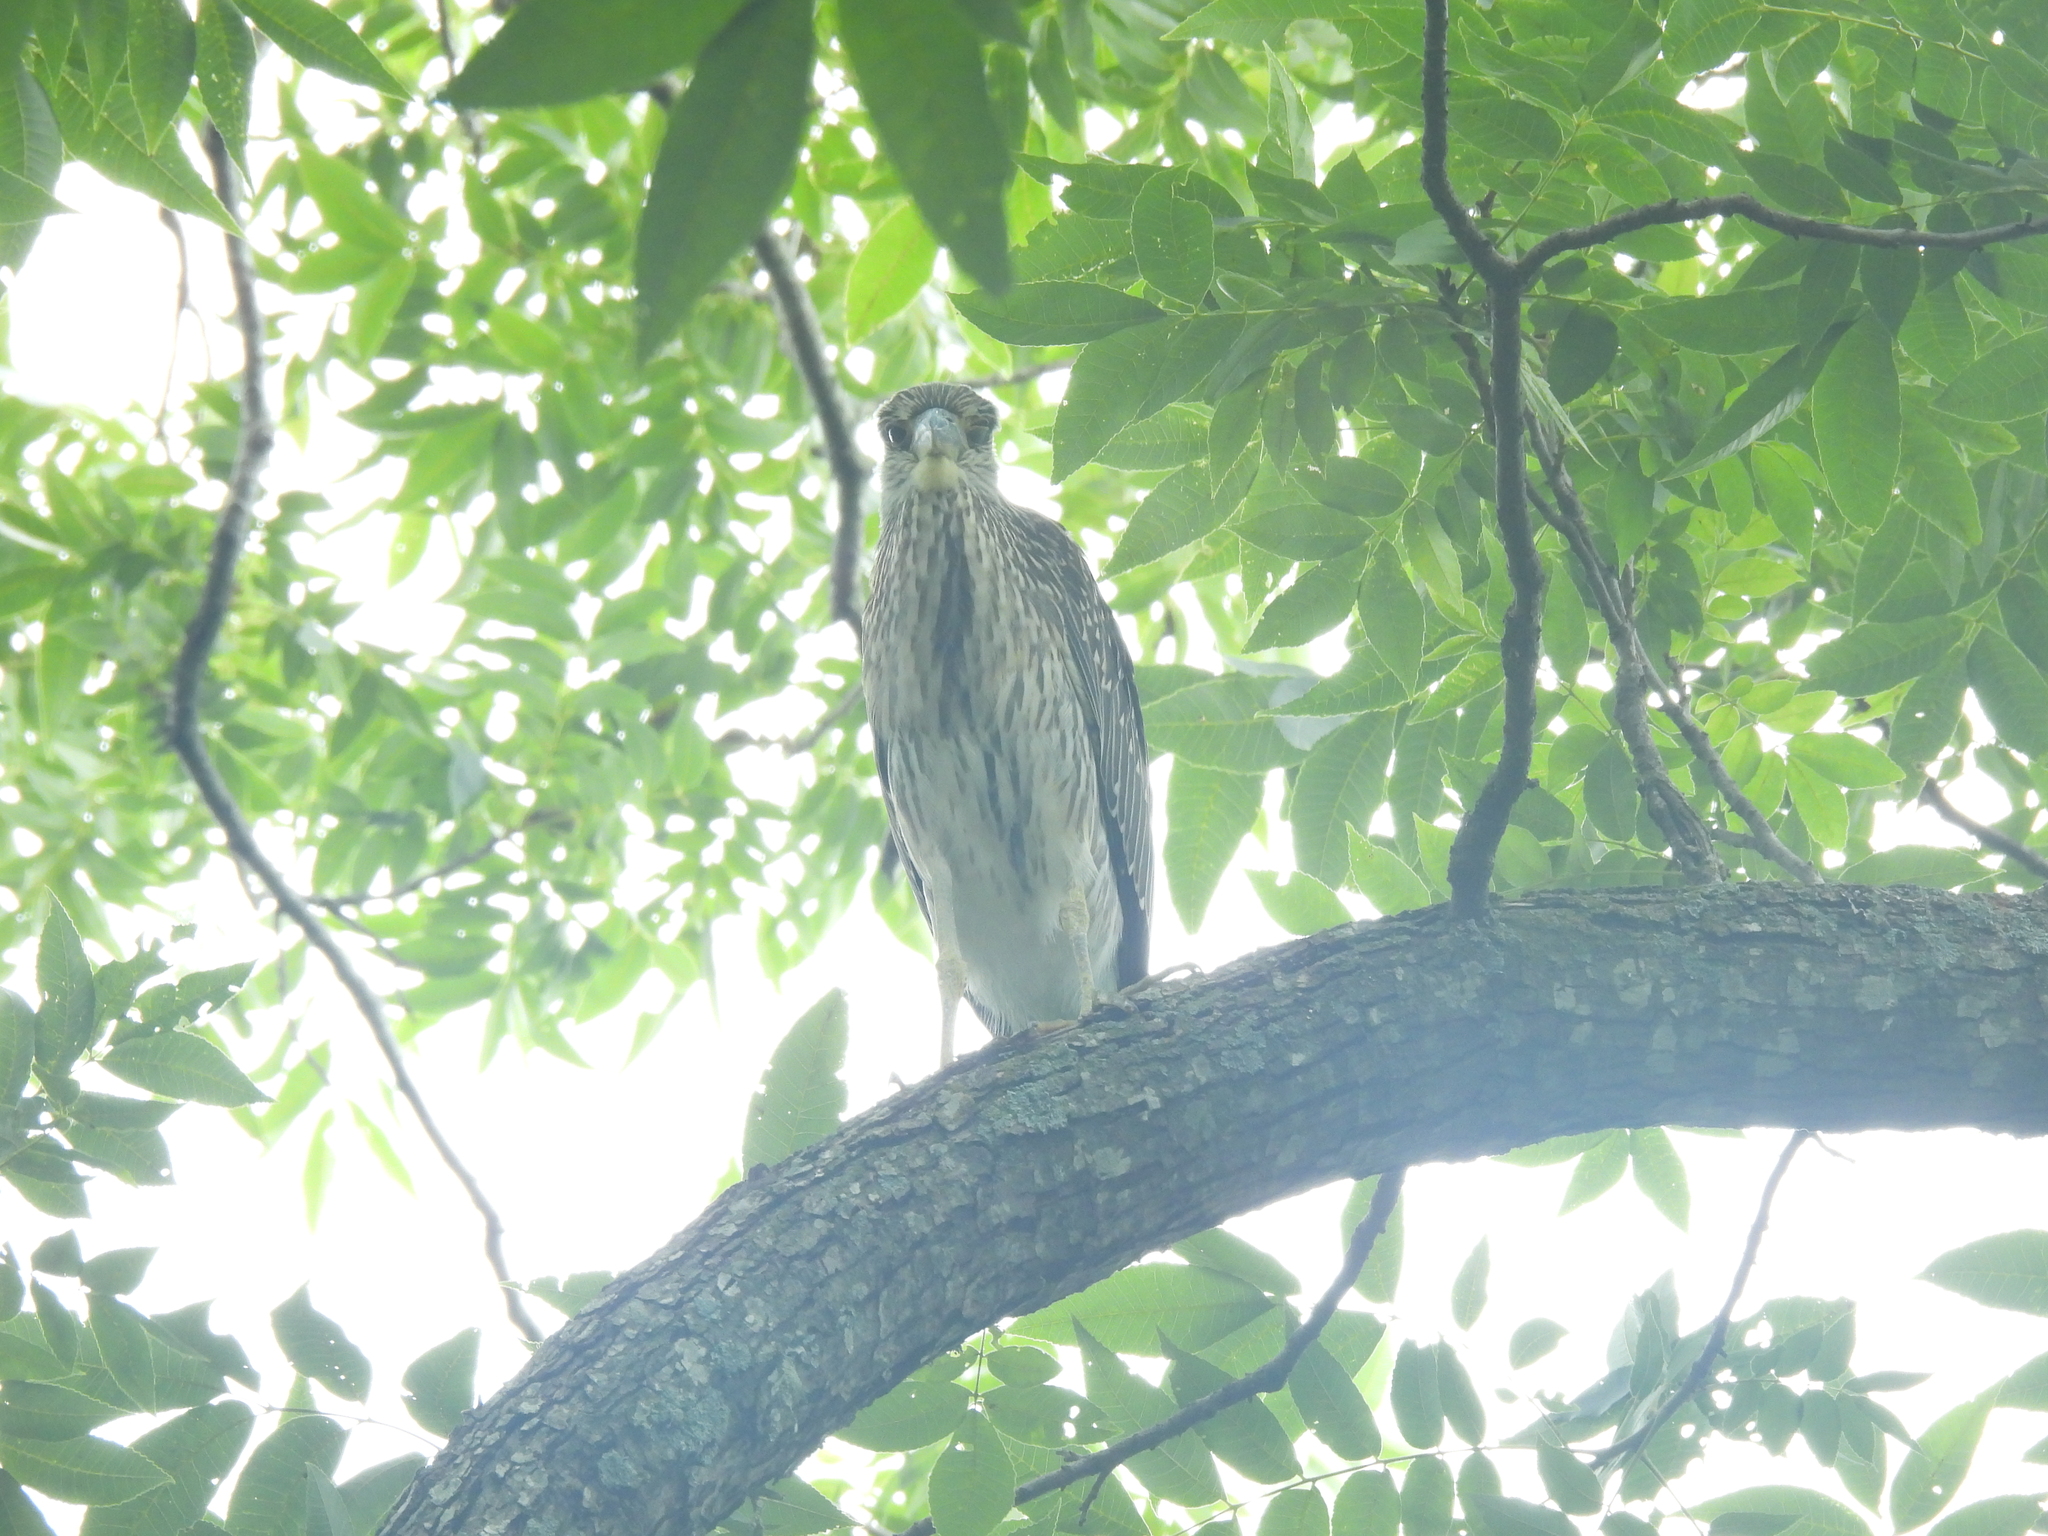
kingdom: Animalia
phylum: Chordata
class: Aves
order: Pelecaniformes
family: Ardeidae
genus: Nyctanassa
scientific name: Nyctanassa violacea
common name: Yellow-crowned night heron
